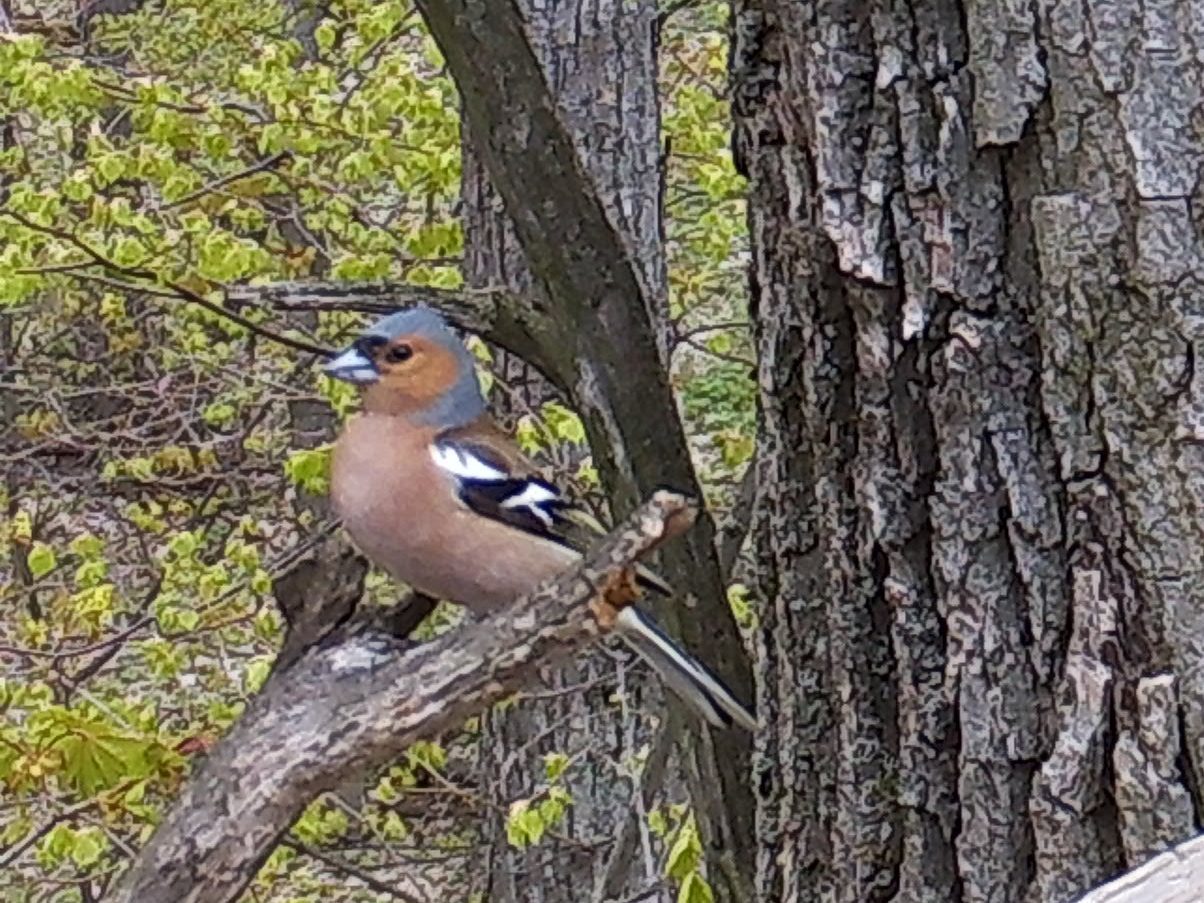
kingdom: Animalia
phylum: Chordata
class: Aves
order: Passeriformes
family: Fringillidae
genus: Fringilla
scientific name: Fringilla coelebs
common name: Common chaffinch
